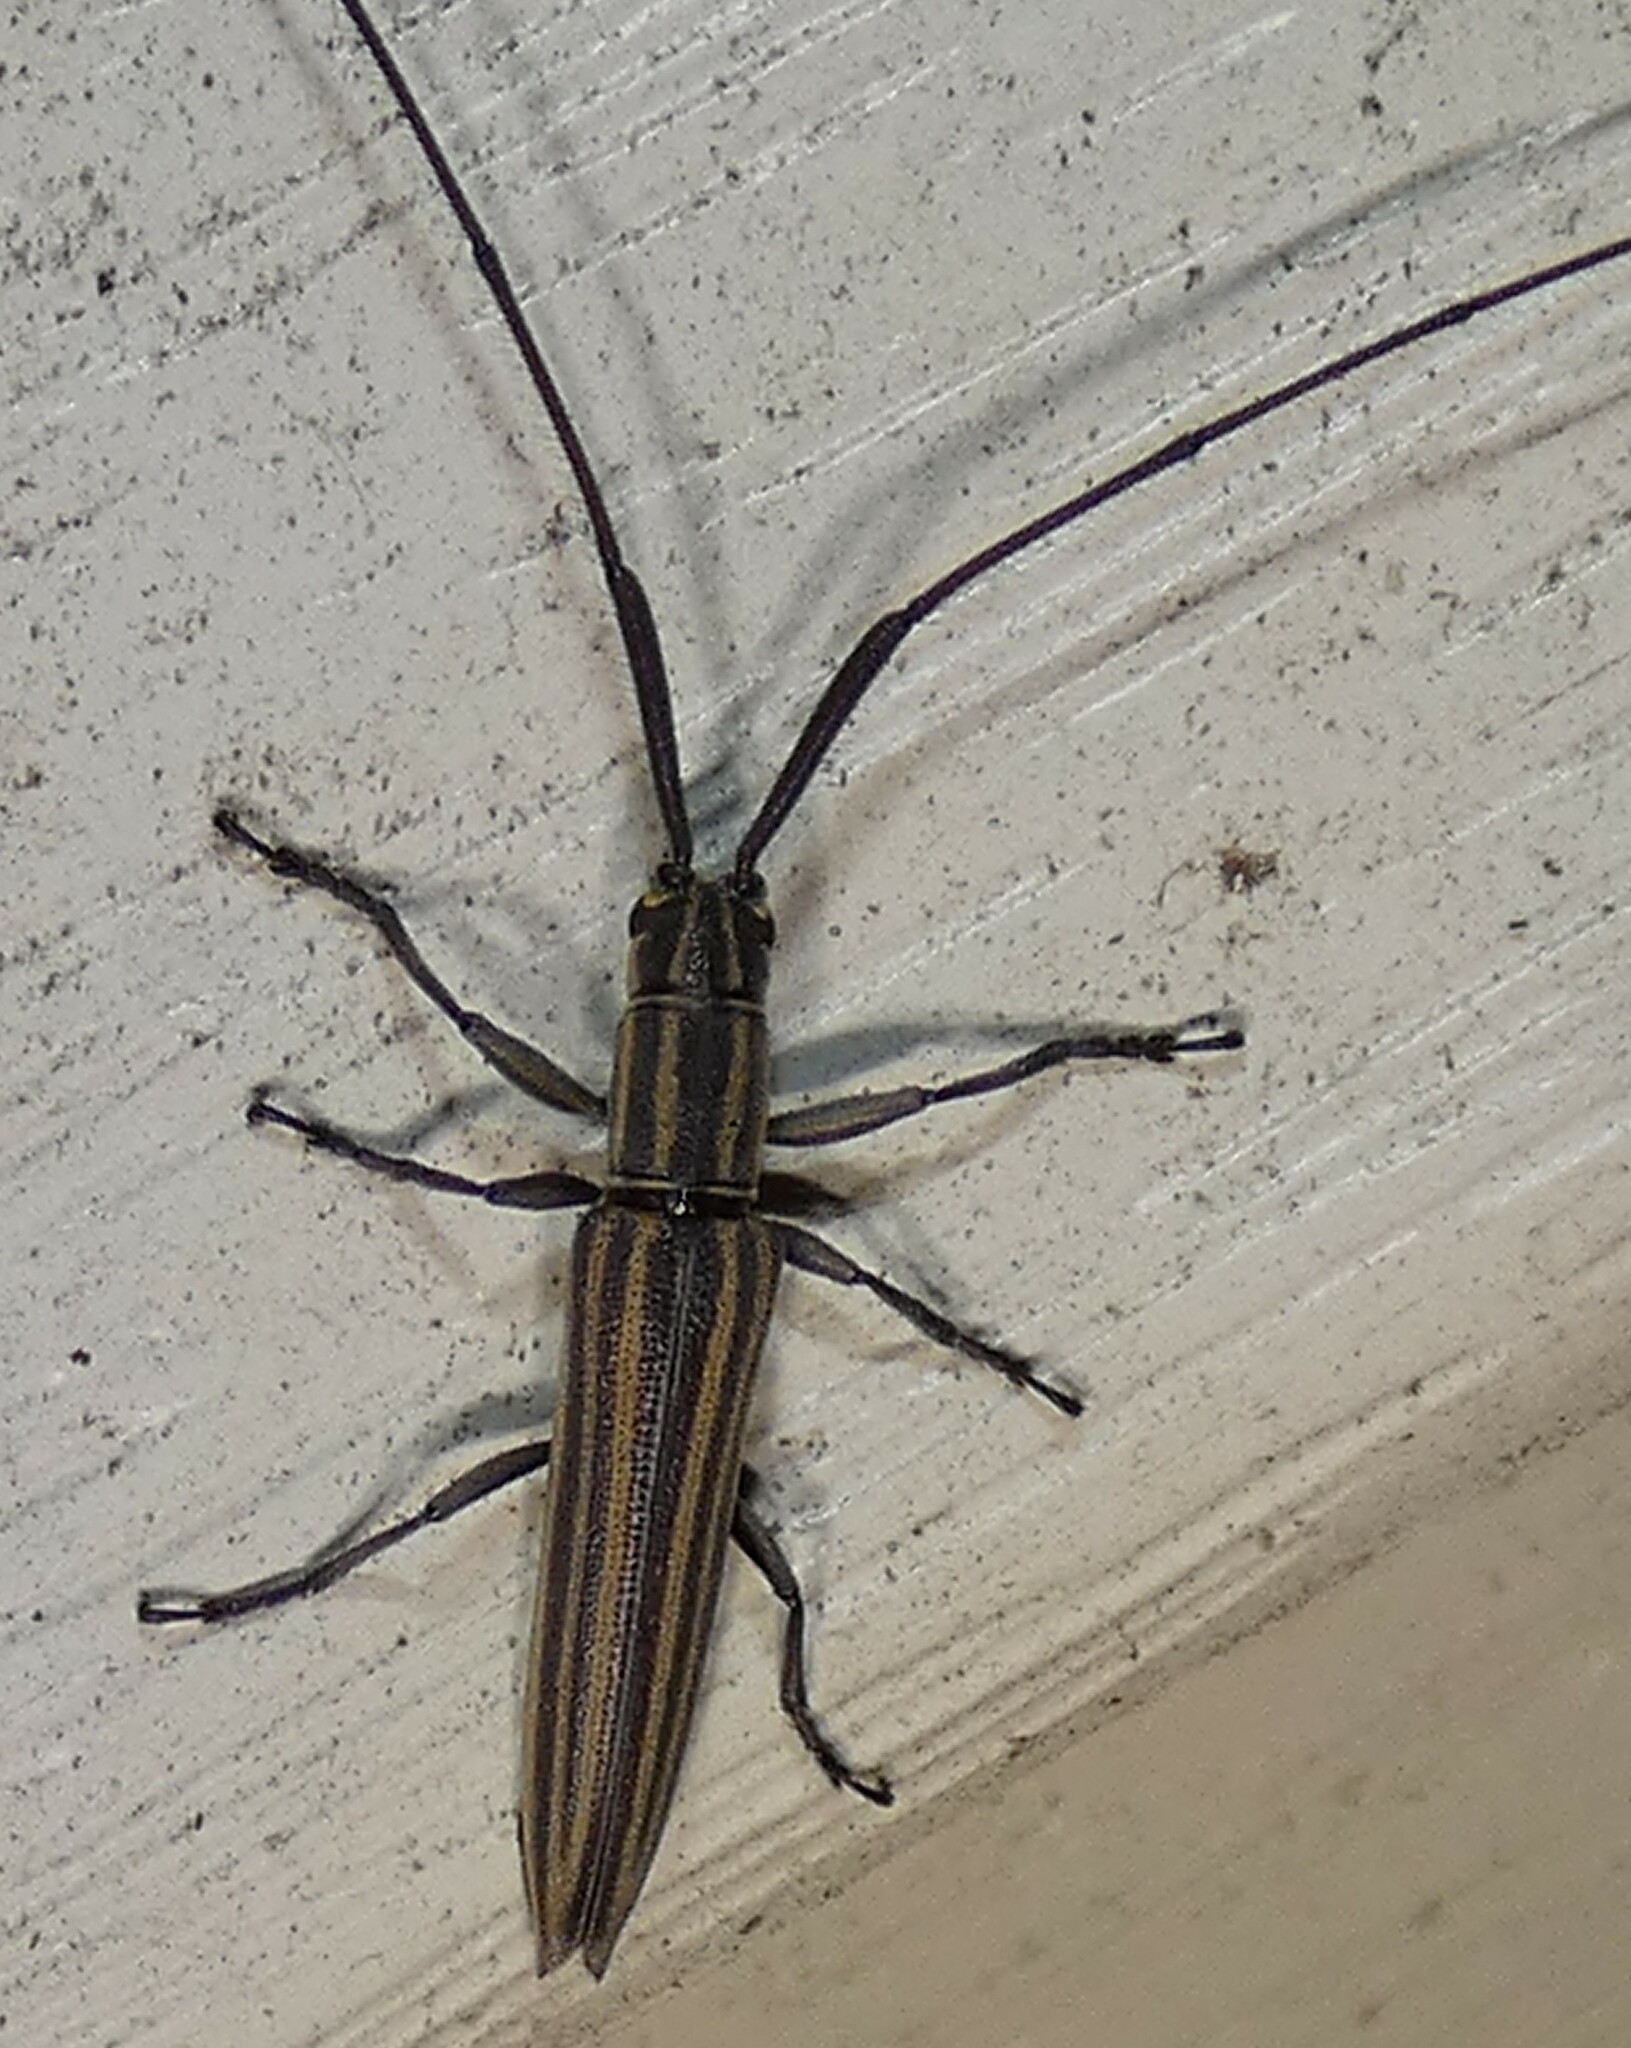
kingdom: Animalia
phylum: Arthropoda
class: Insecta
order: Coleoptera
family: Cerambycidae
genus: Hippopsis
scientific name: Hippopsis
